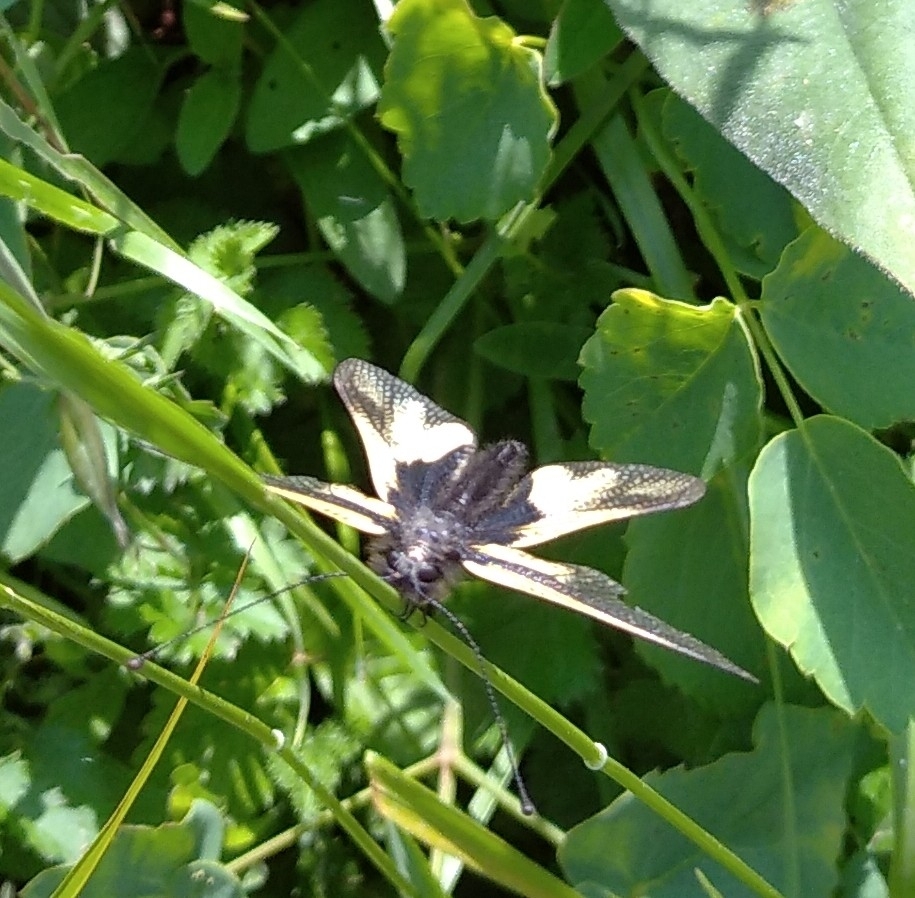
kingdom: Animalia
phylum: Arthropoda
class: Insecta
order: Neuroptera
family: Ascalaphidae
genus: Libelloides
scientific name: Libelloides coccajus
